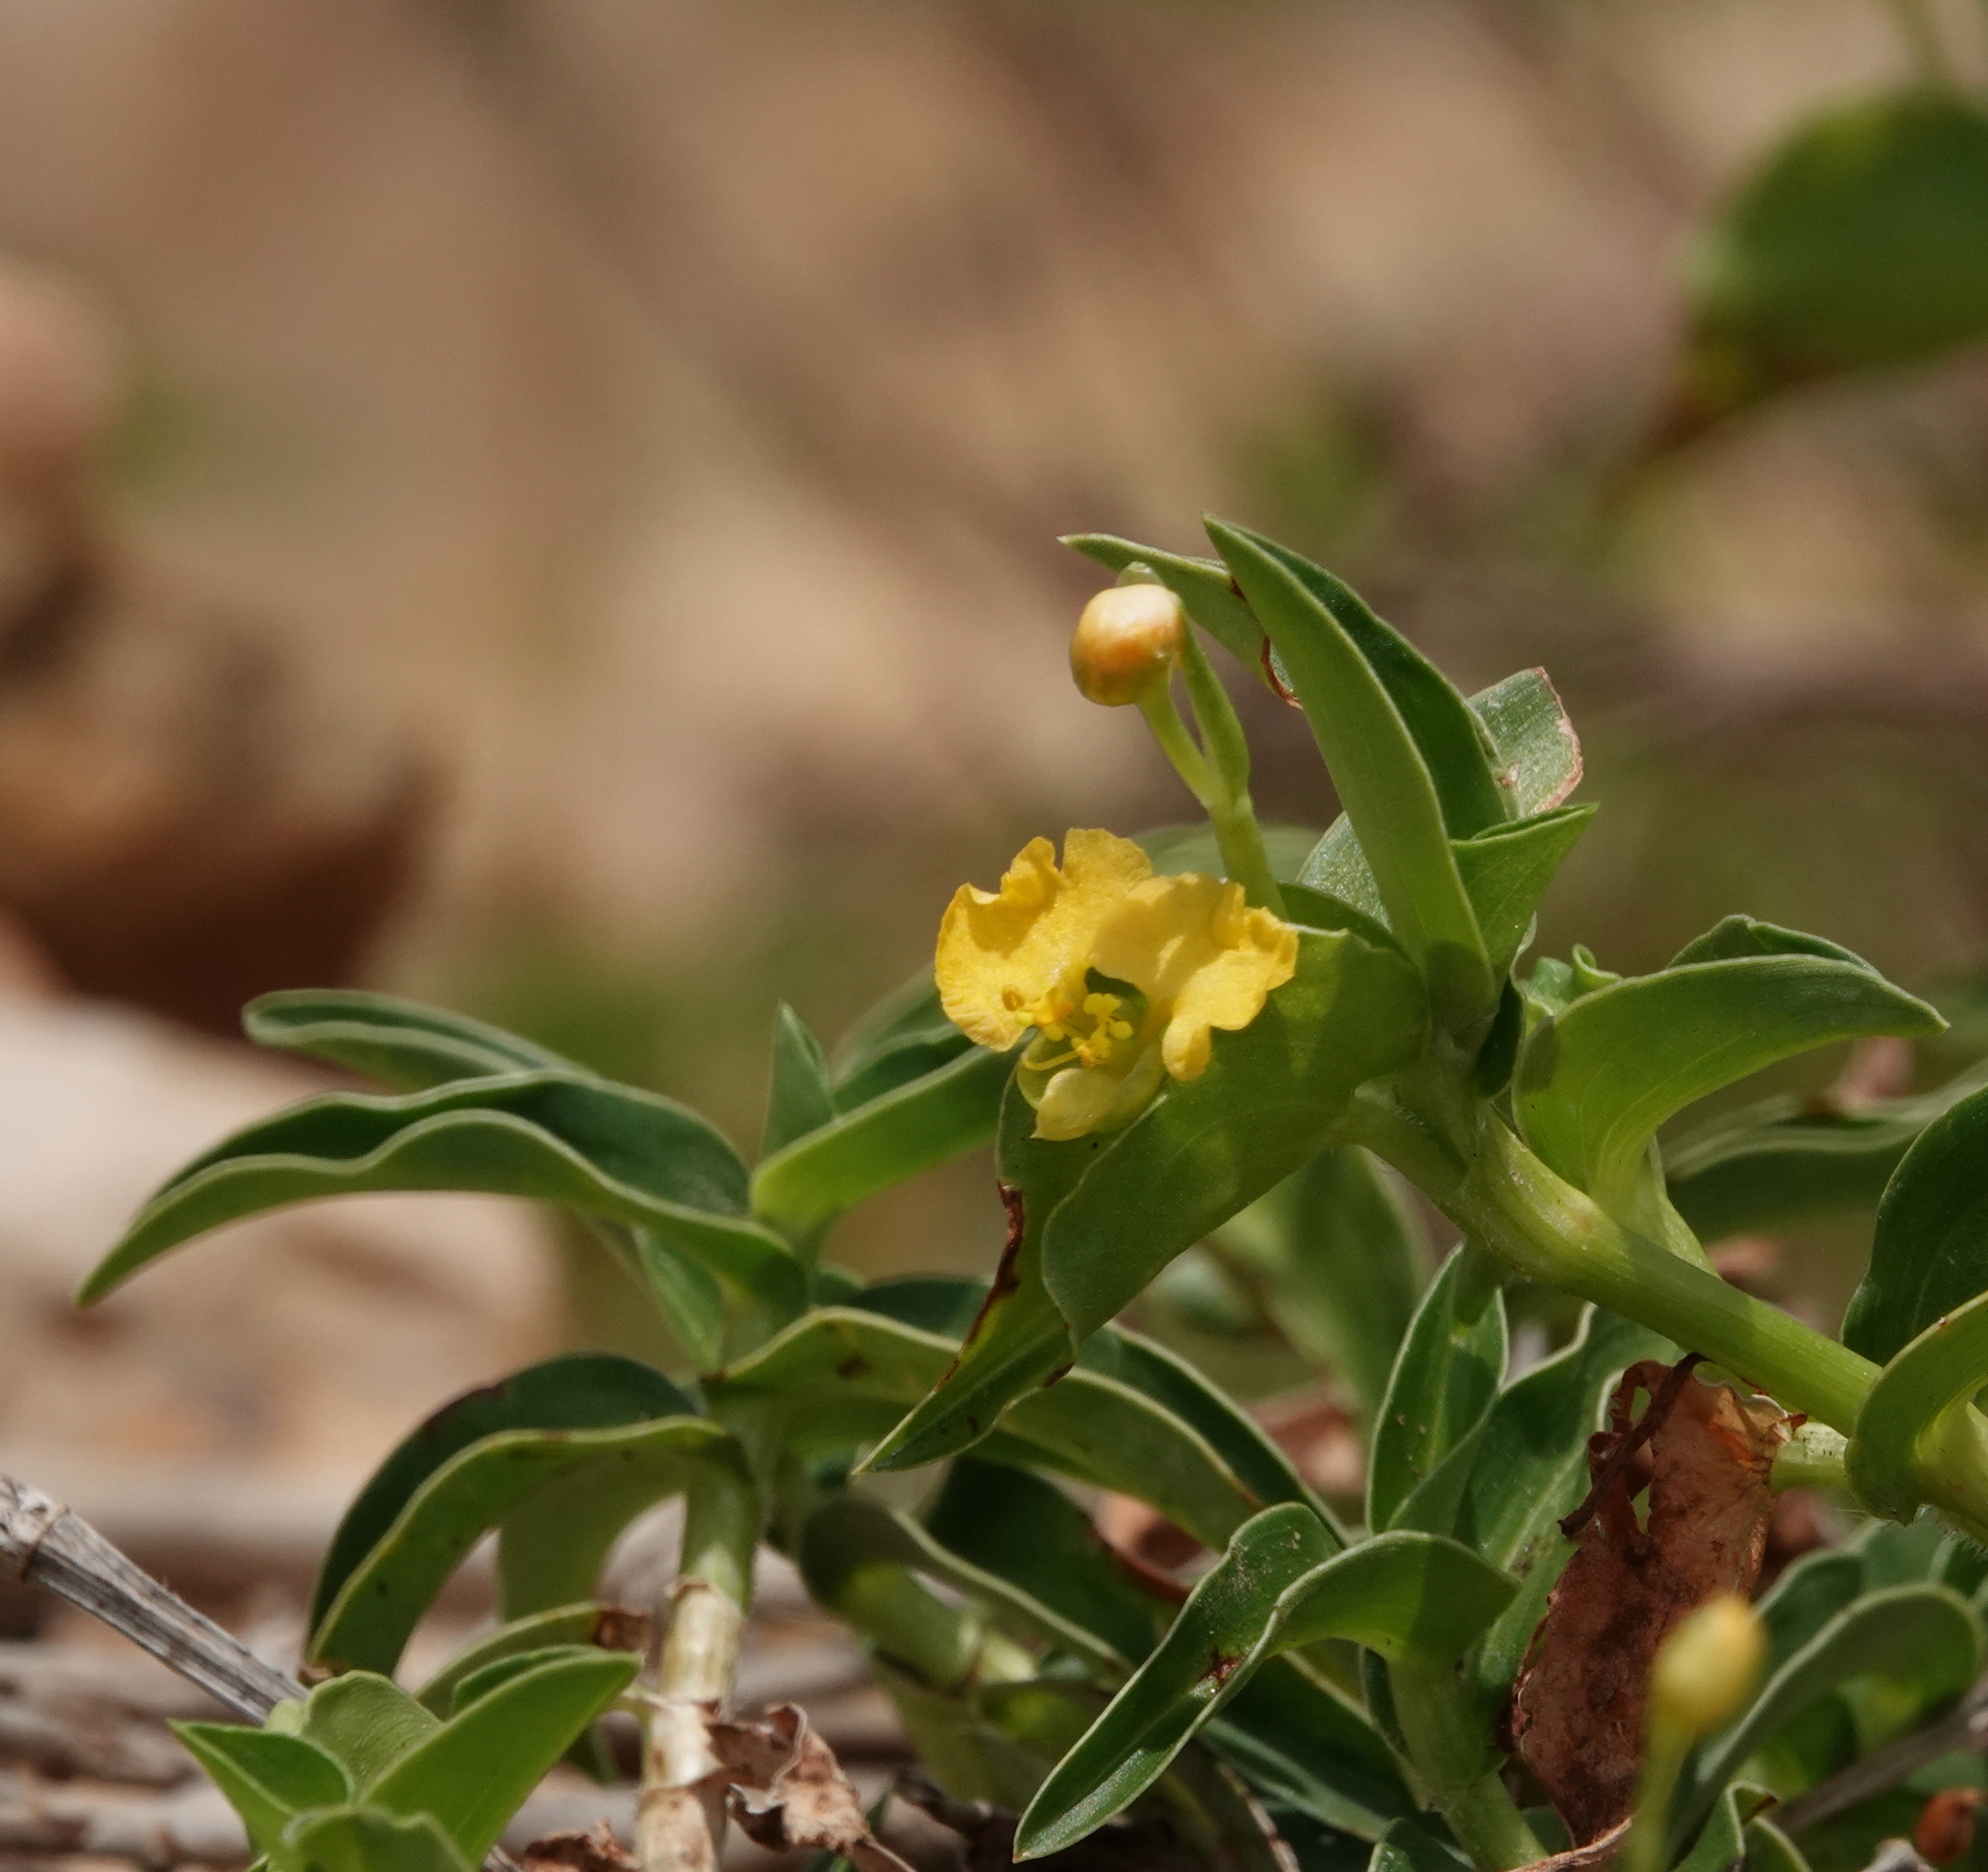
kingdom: Plantae
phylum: Tracheophyta
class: Liliopsida
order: Commelinales
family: Commelinaceae
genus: Commelina
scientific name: Commelina africana
